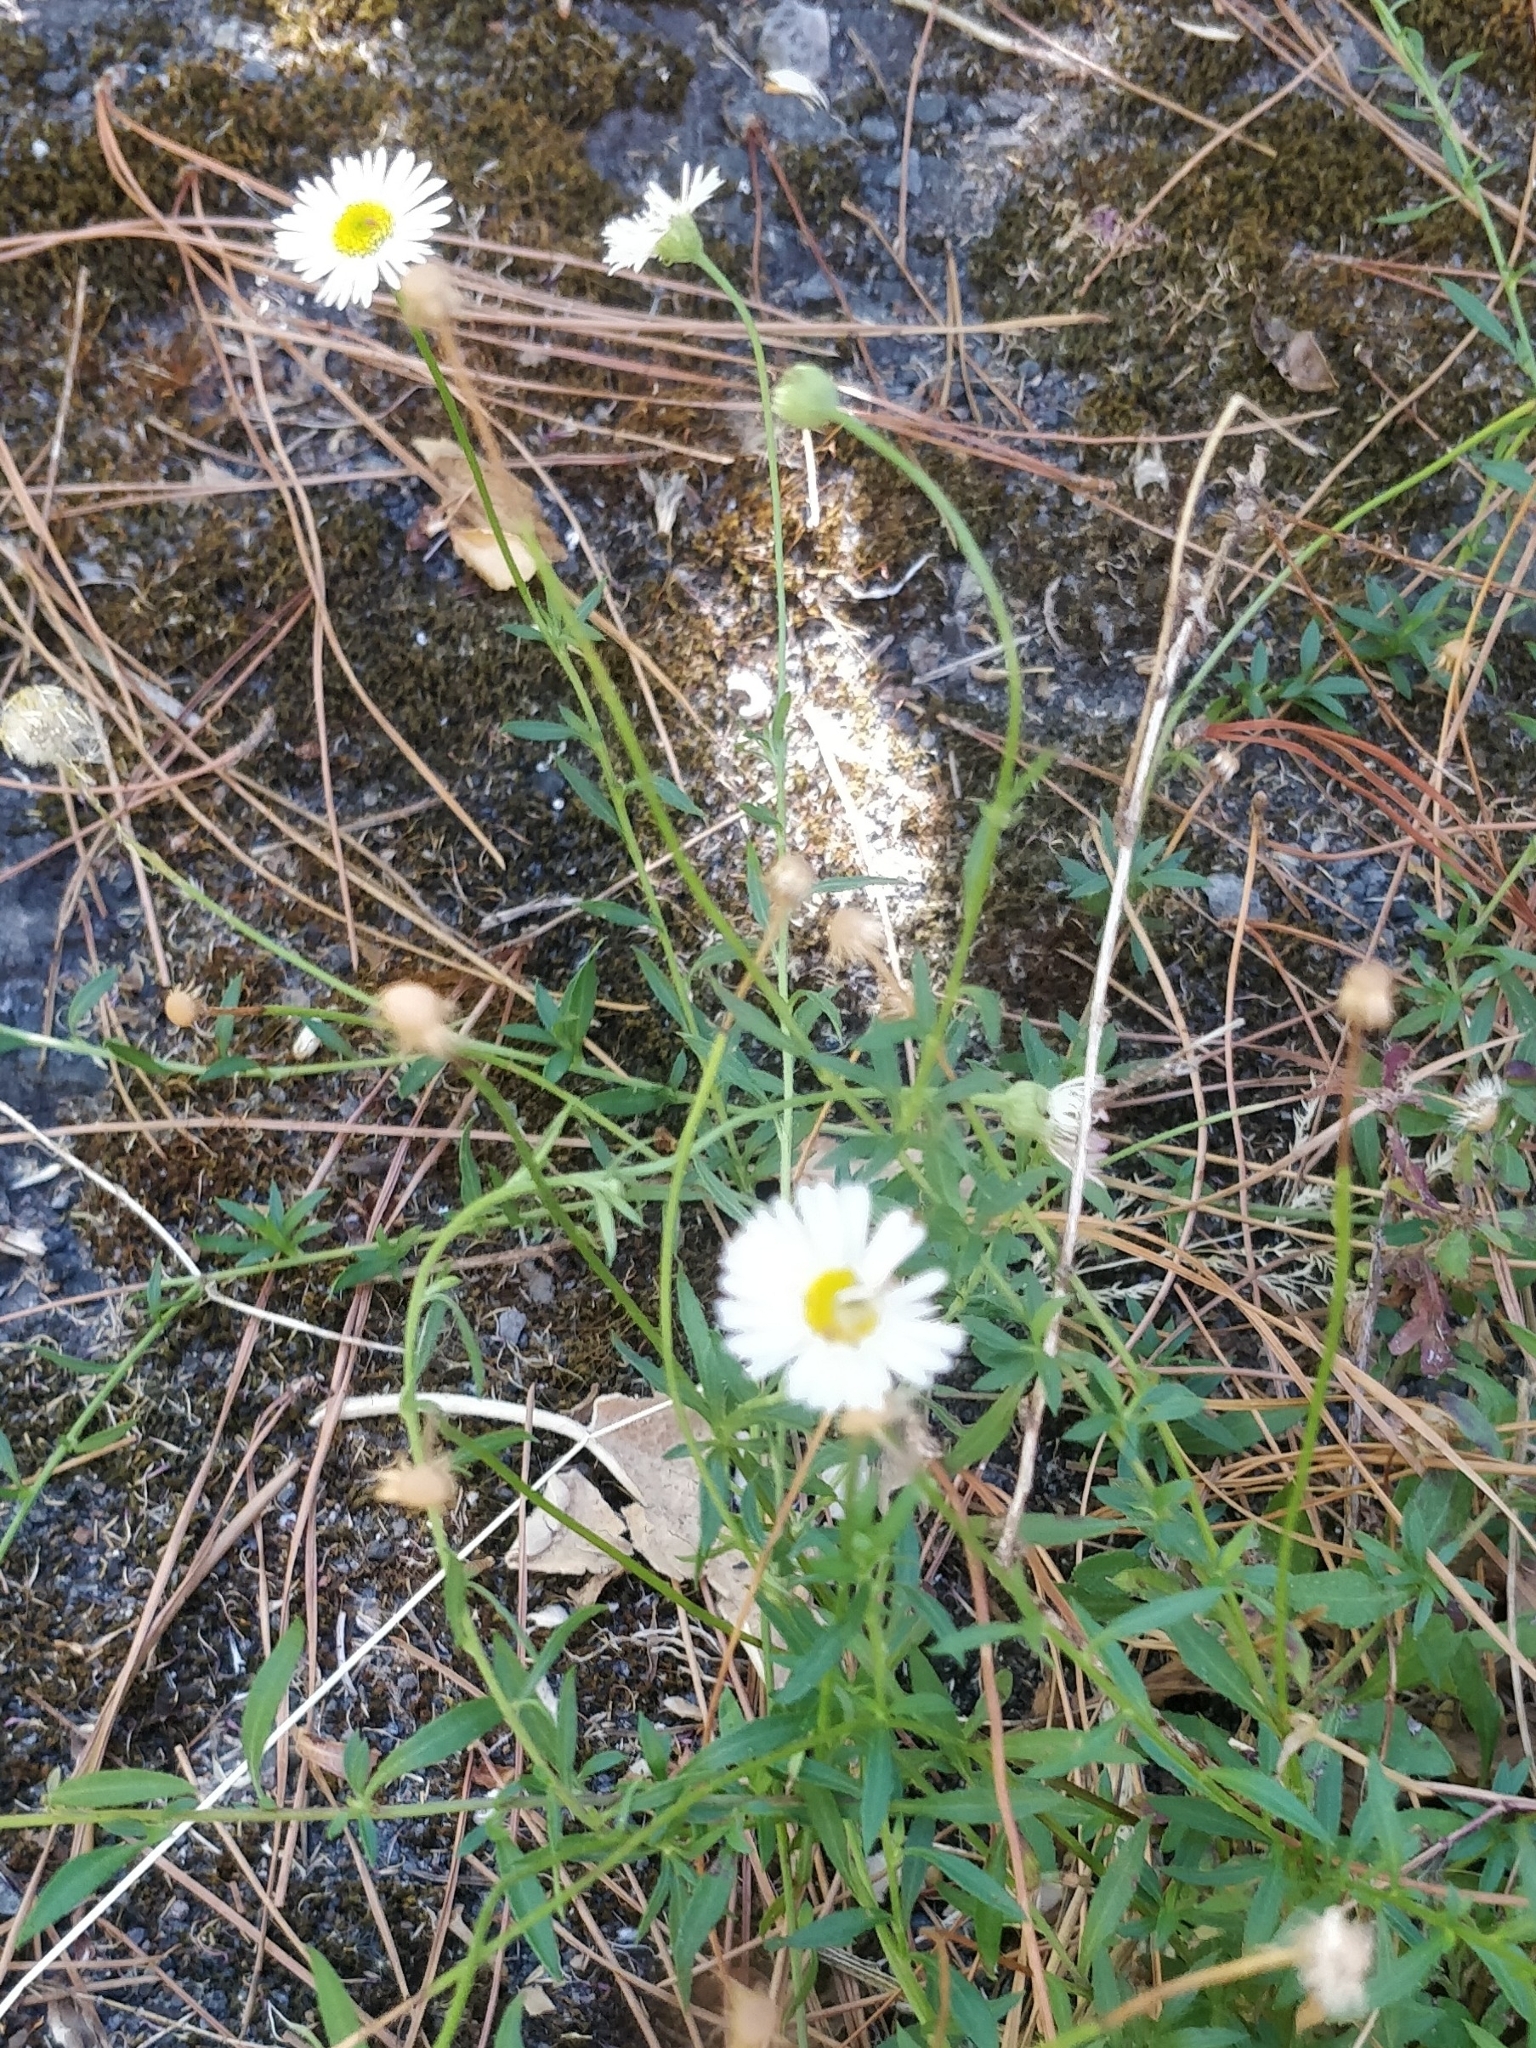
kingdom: Plantae
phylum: Tracheophyta
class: Magnoliopsida
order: Asterales
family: Asteraceae
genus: Erigeron
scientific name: Erigeron karvinskianus
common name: Mexican fleabane
